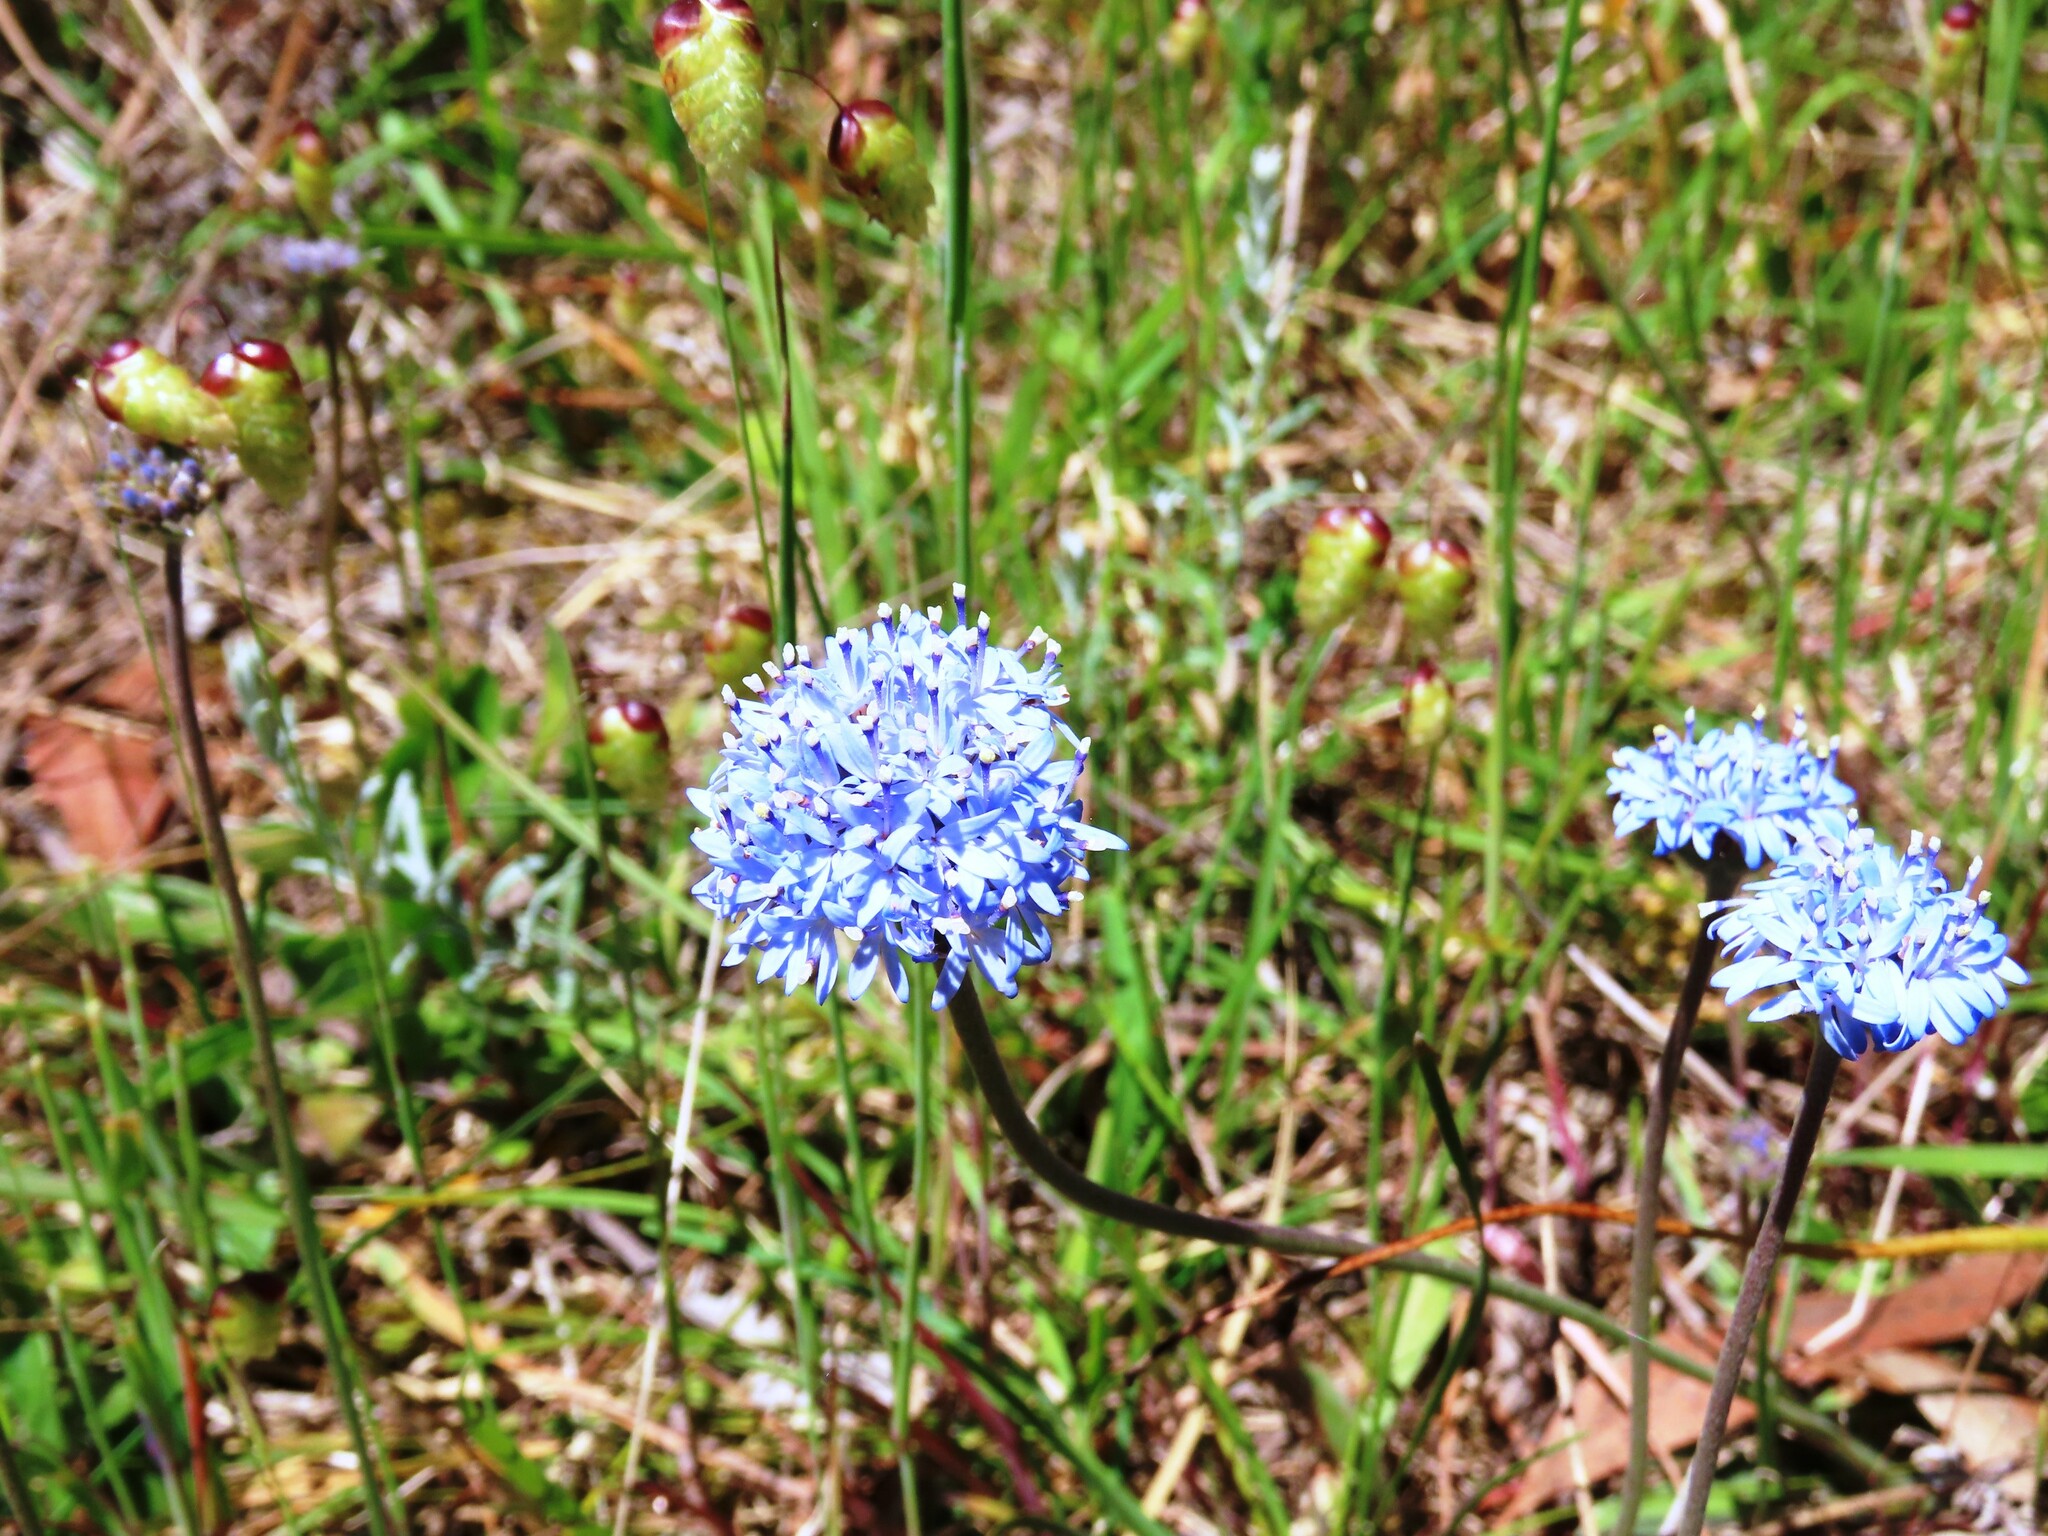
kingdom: Plantae
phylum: Tracheophyta
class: Magnoliopsida
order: Asterales
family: Goodeniaceae
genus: Brunonia
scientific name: Brunonia australis
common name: Blue pincushion
